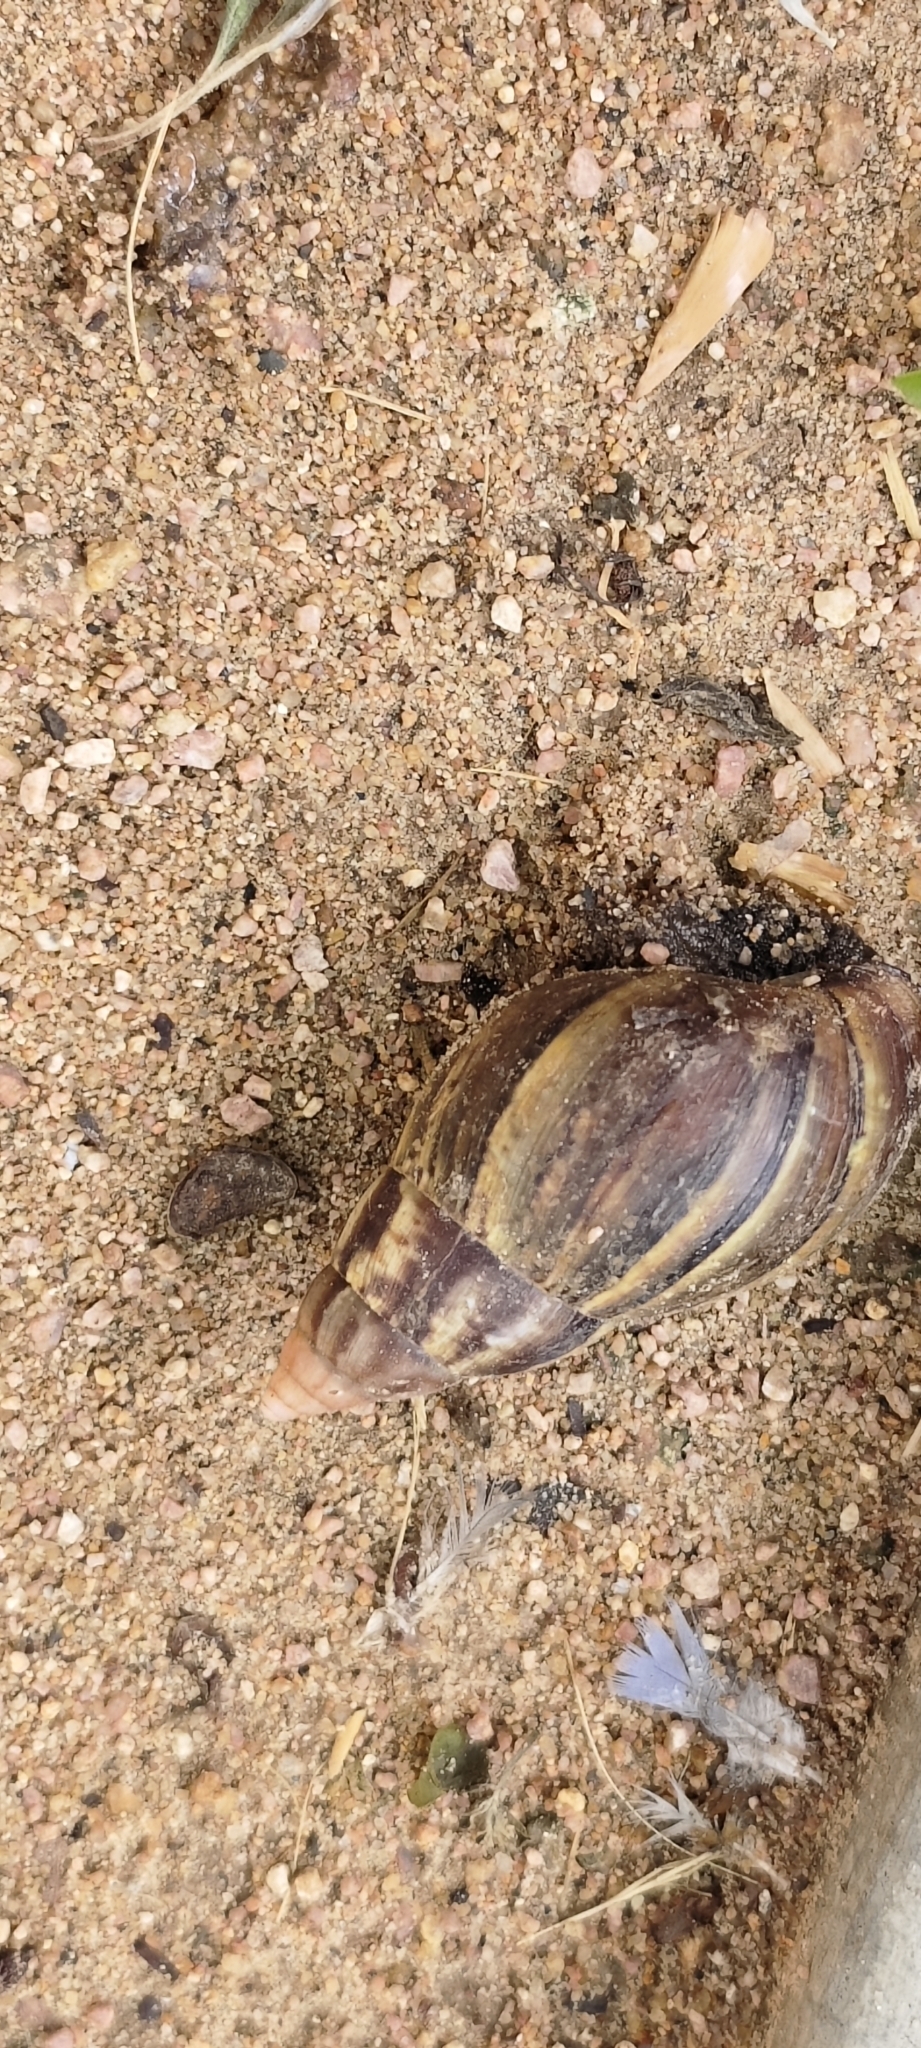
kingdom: Animalia
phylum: Mollusca
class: Gastropoda
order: Stylommatophora
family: Achatinidae
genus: Lissachatina
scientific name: Lissachatina fulica
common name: Giant african snail
